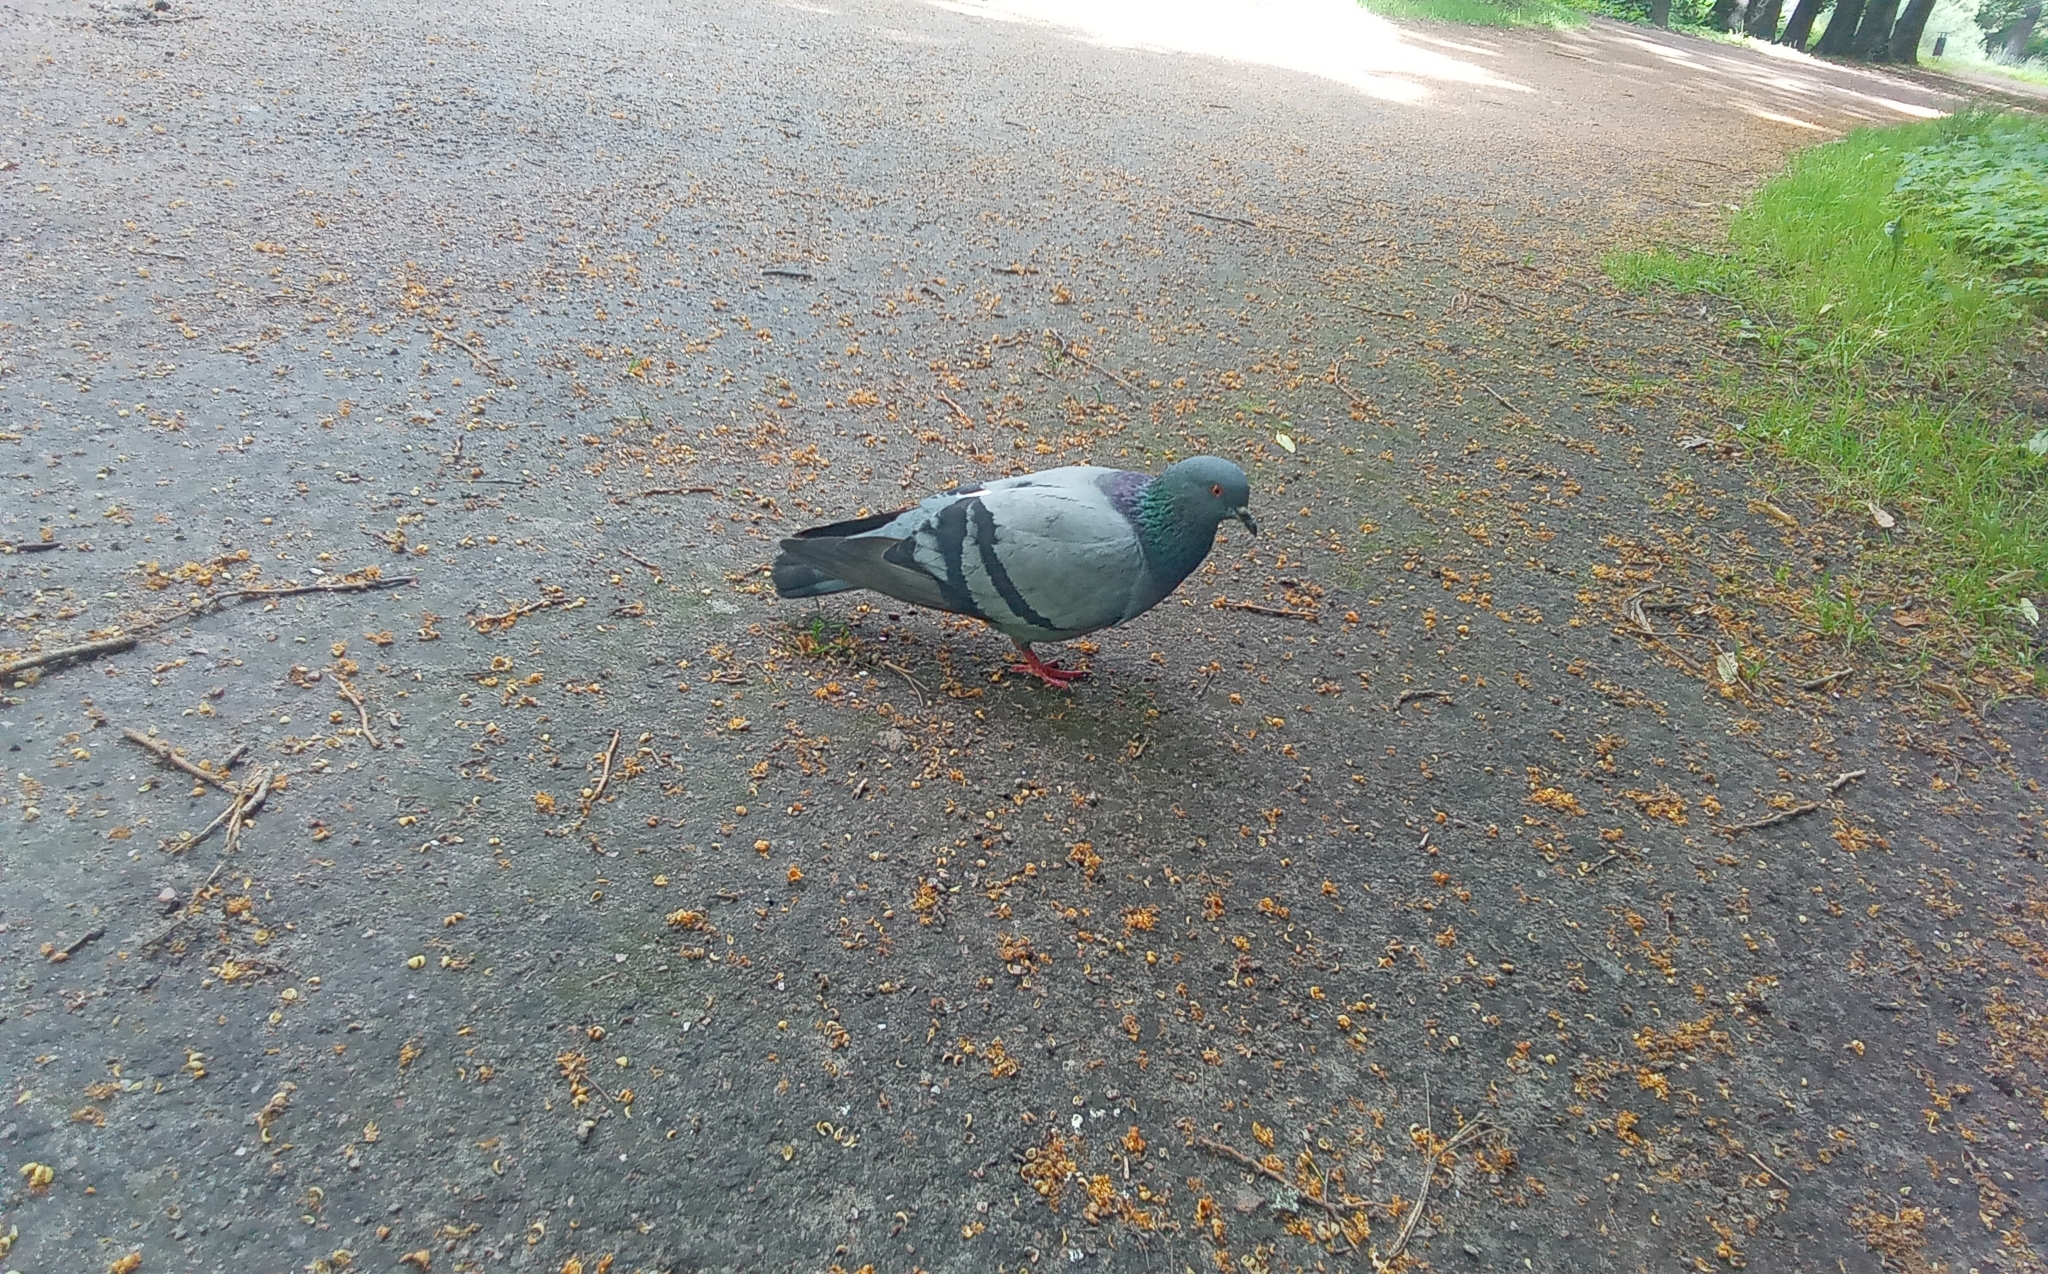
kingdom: Animalia
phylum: Chordata
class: Aves
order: Columbiformes
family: Columbidae
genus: Columba
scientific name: Columba livia
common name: Rock pigeon
